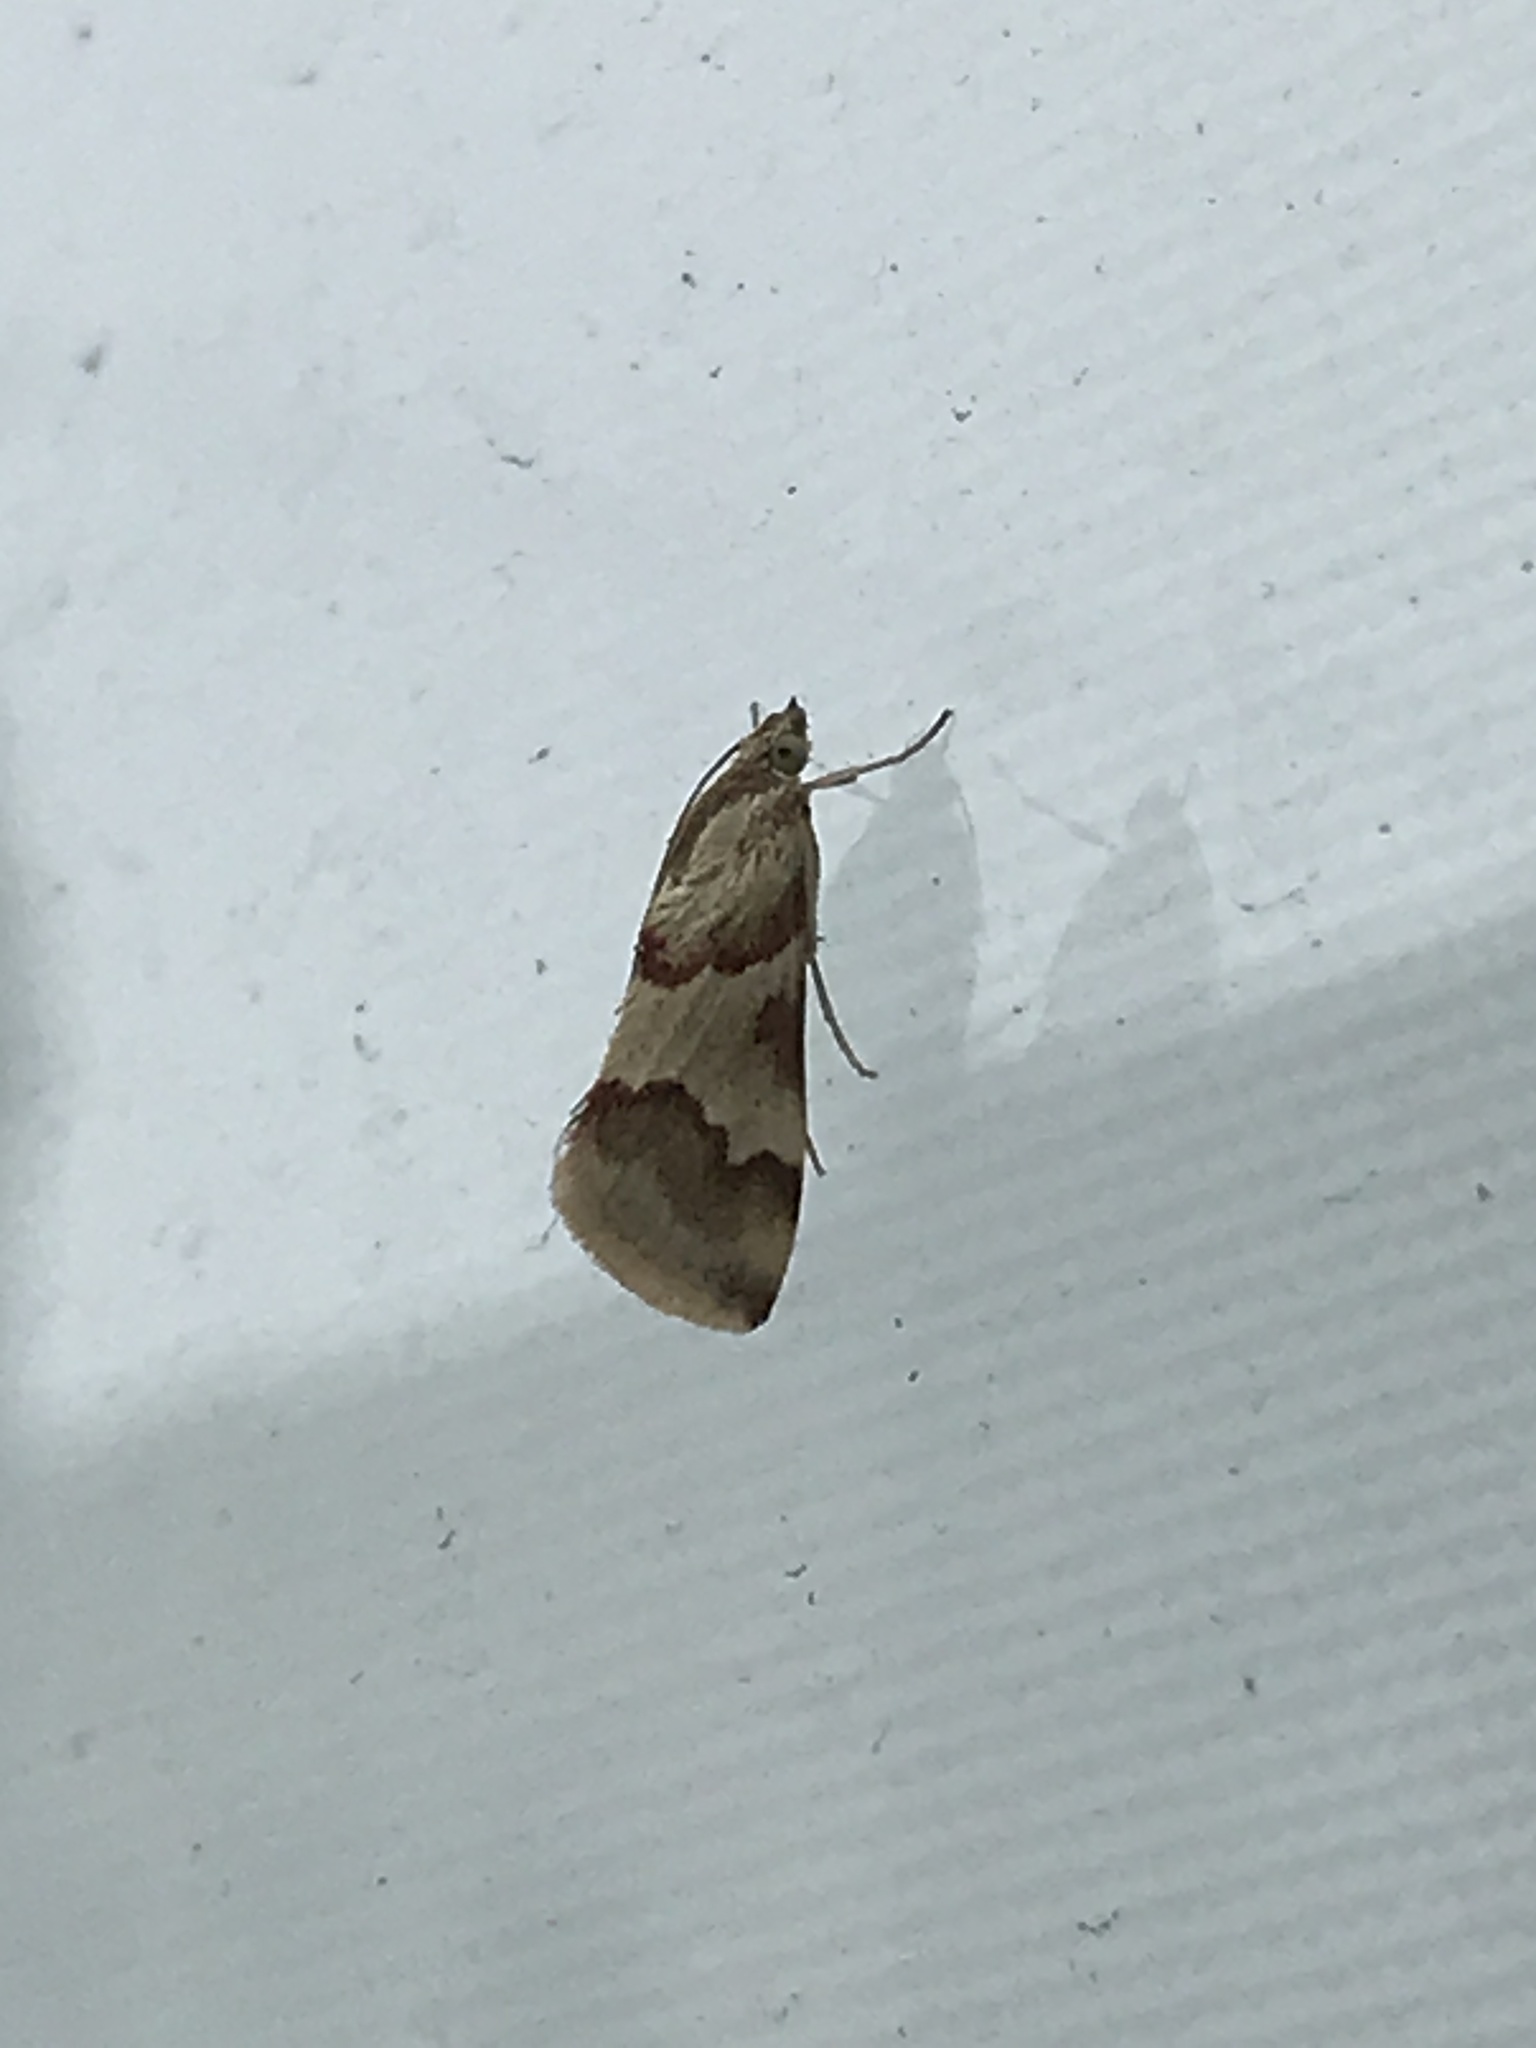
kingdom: Animalia
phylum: Arthropoda
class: Insecta
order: Lepidoptera
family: Crambidae
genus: Noctuelia
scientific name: Noctuelia Mimoschinia rufofascialis
